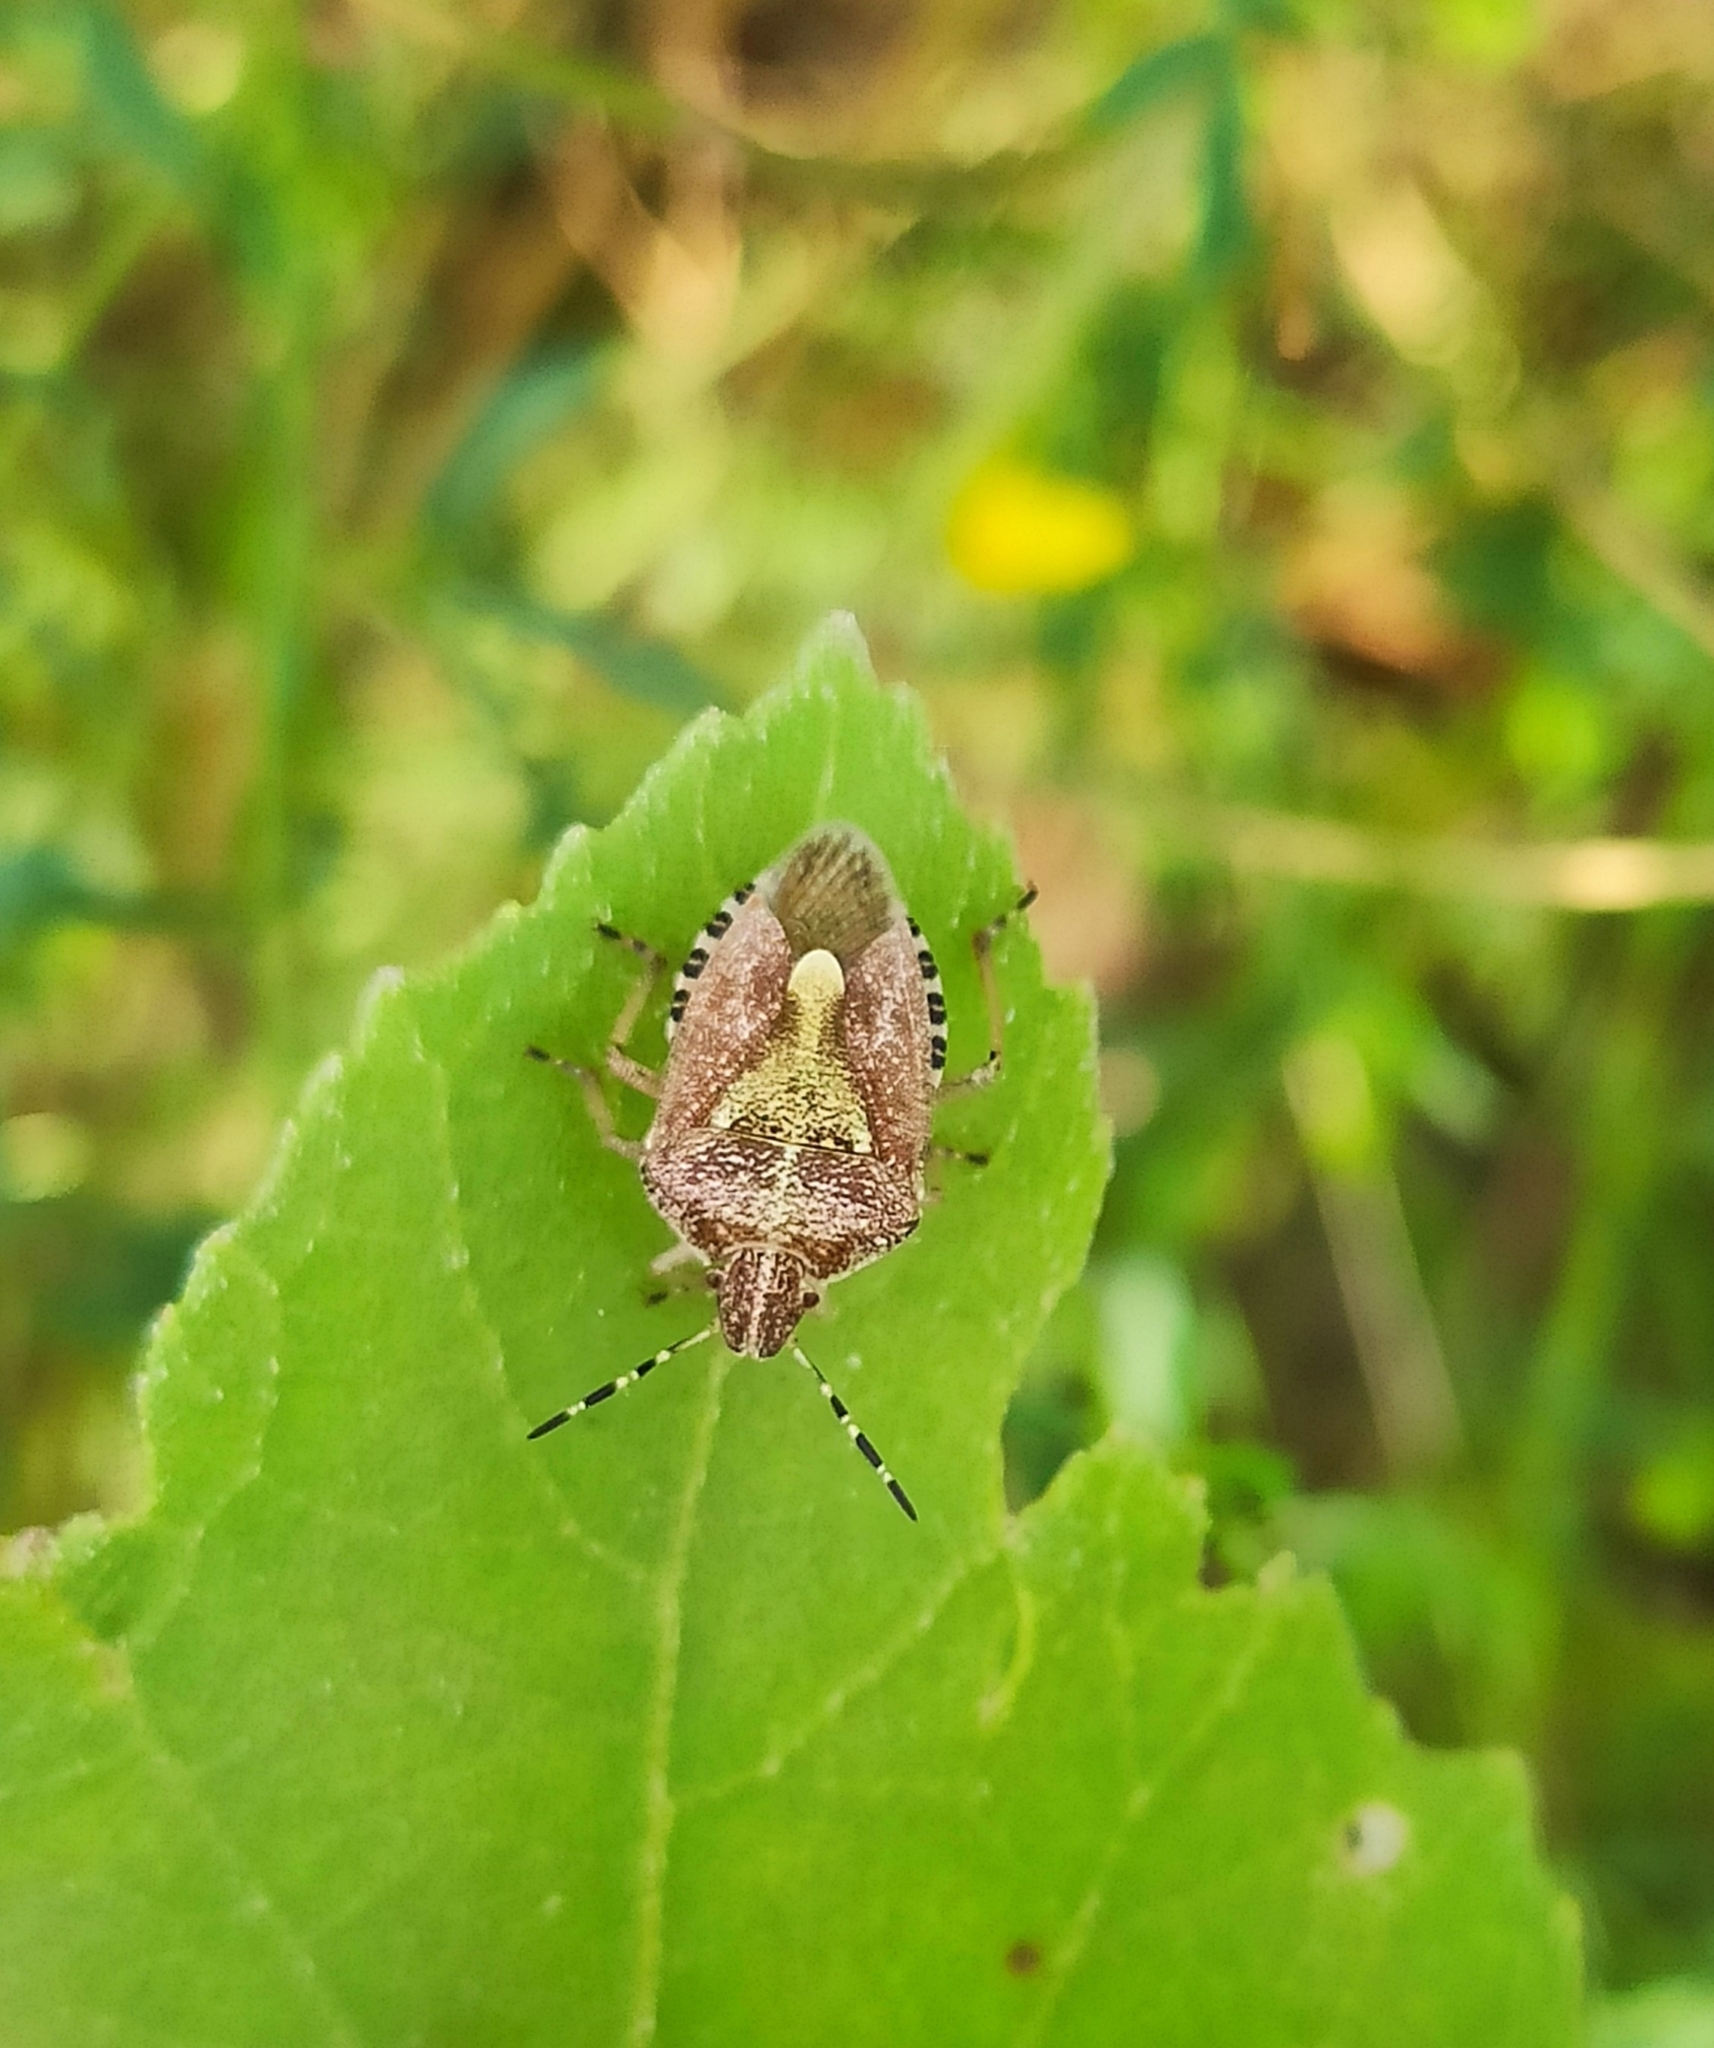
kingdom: Animalia
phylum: Arthropoda
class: Insecta
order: Hemiptera
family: Pentatomidae
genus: Dolycoris
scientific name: Dolycoris baccarum
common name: Sloe bug
